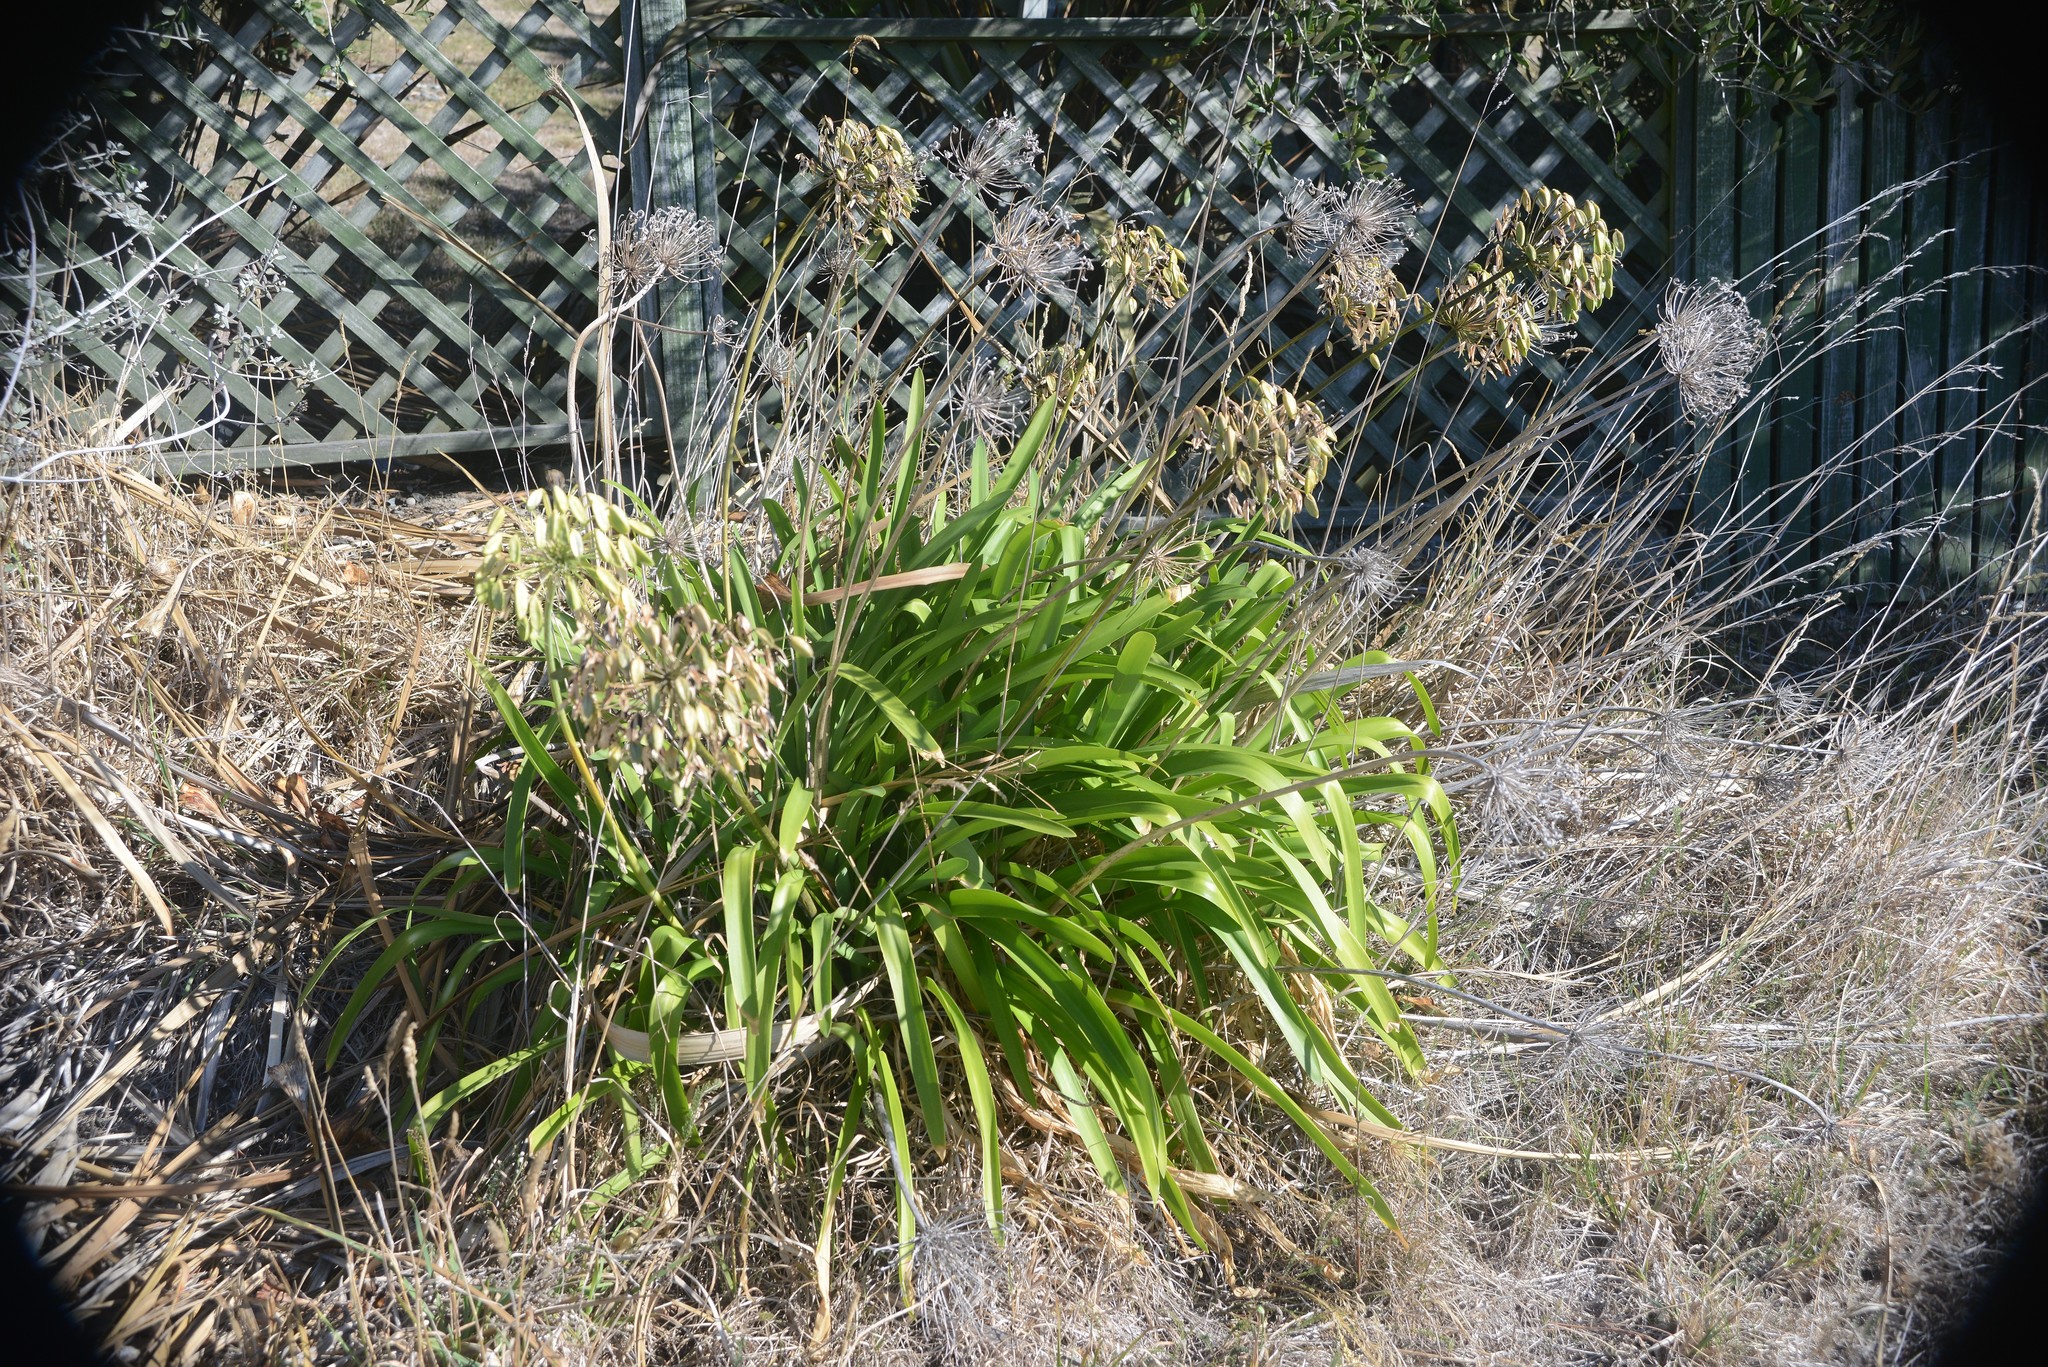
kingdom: Plantae
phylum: Tracheophyta
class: Liliopsida
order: Asparagales
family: Amaryllidaceae
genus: Agapanthus
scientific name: Agapanthus praecox
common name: African-lily
